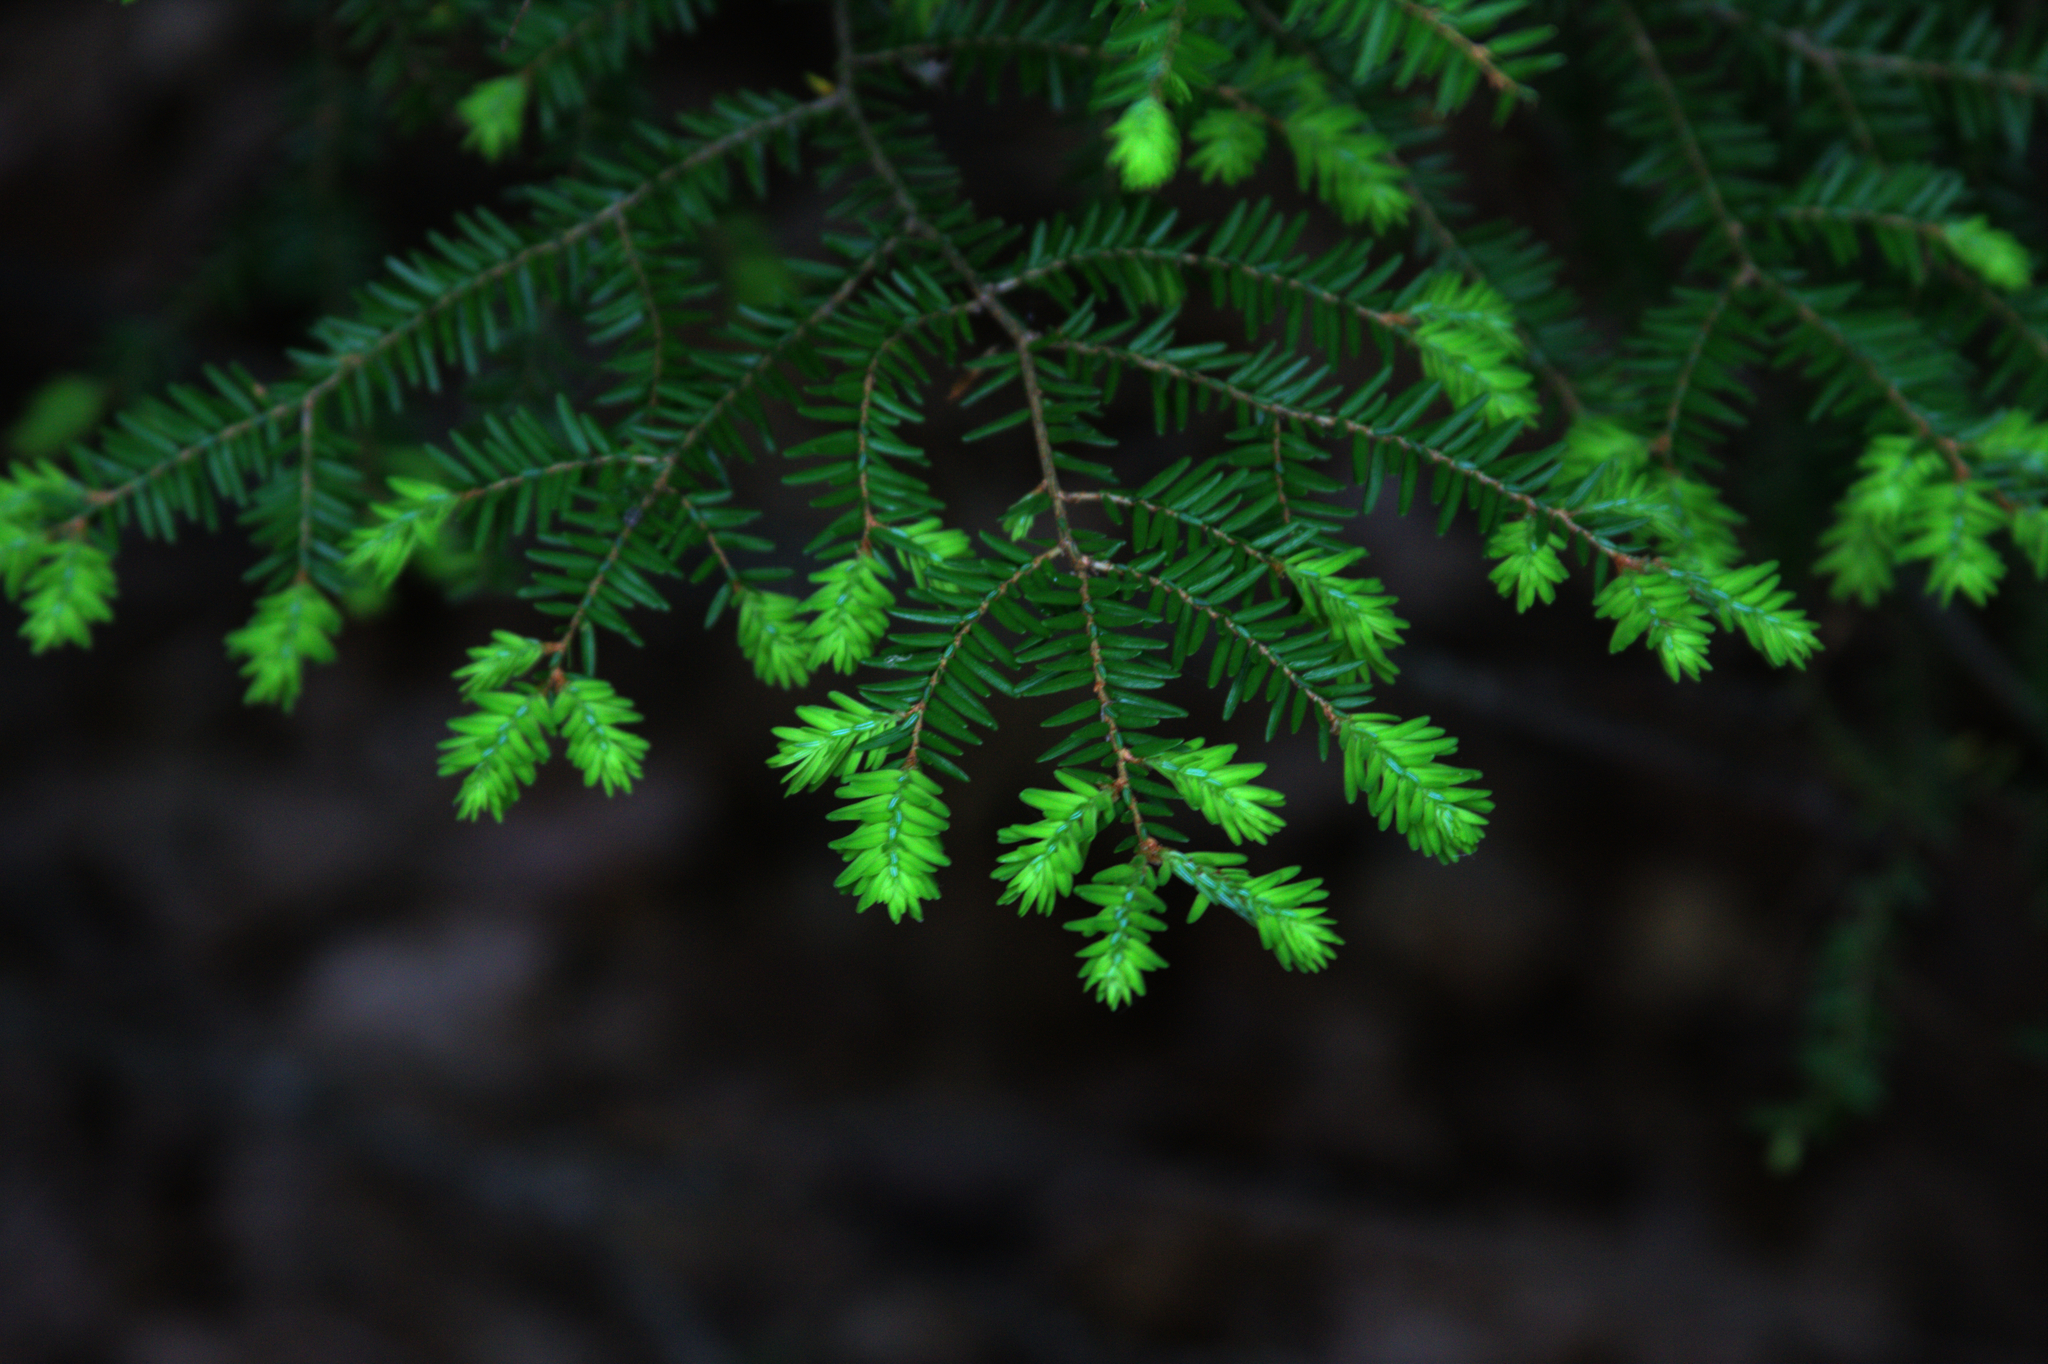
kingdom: Plantae
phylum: Tracheophyta
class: Pinopsida
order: Pinales
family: Pinaceae
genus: Tsuga
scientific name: Tsuga canadensis
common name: Eastern hemlock
